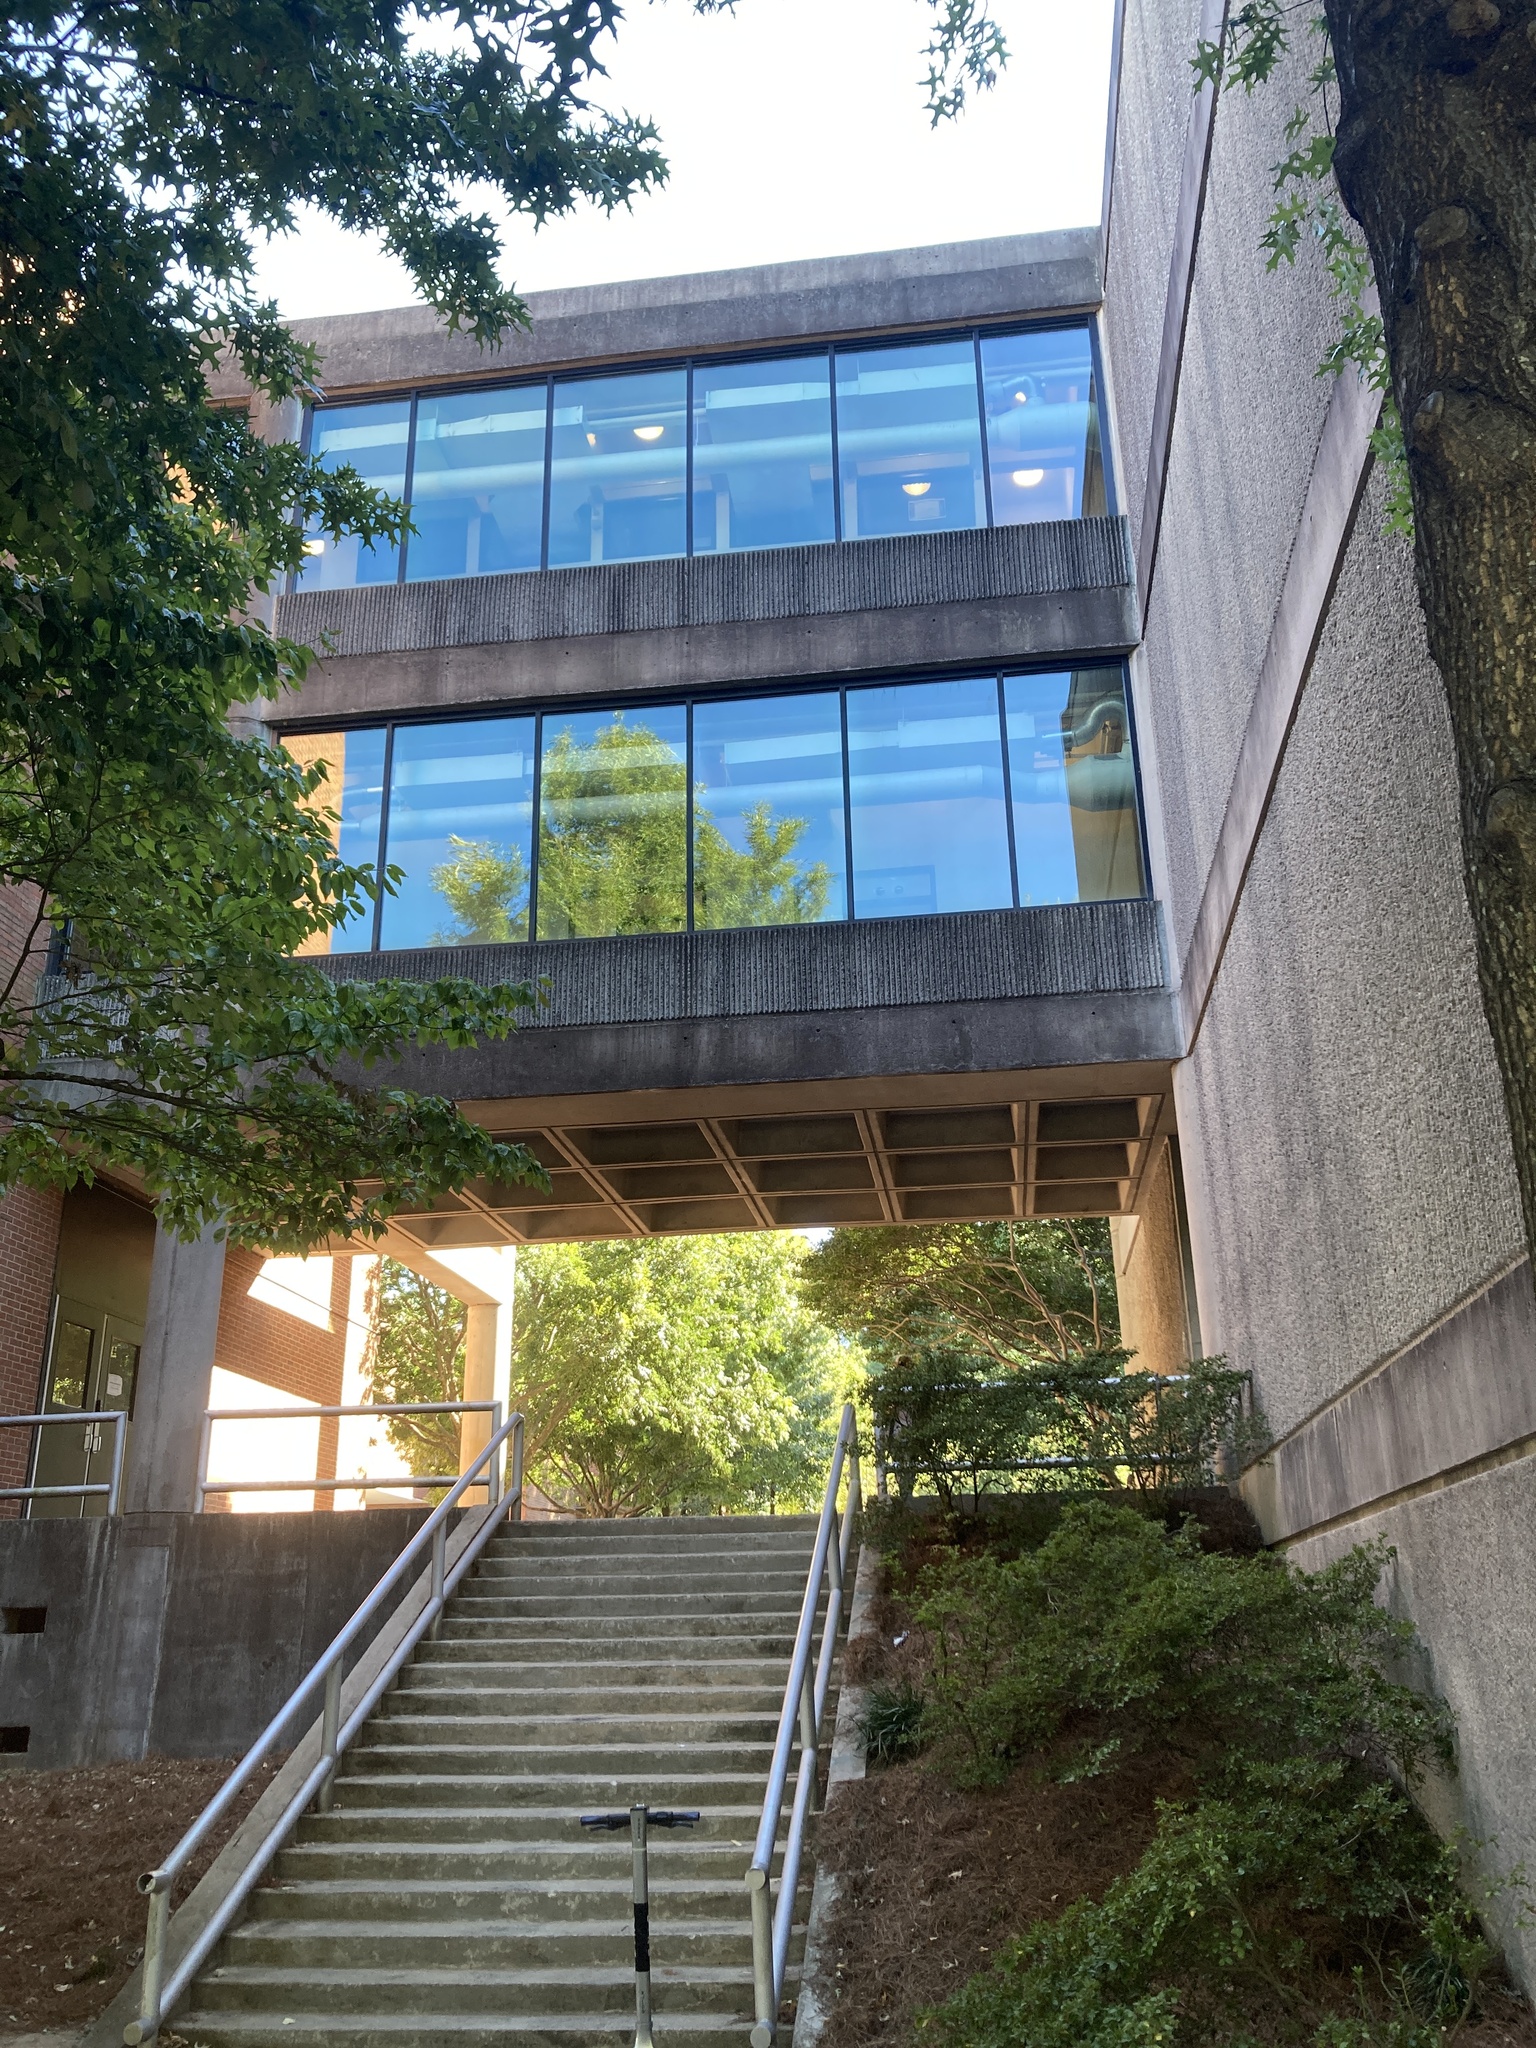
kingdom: Animalia
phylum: Chordata
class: Aves
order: Cuculiformes
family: Cuculidae
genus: Coccyzus
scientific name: Coccyzus americanus
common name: Yellow-billed cuckoo
